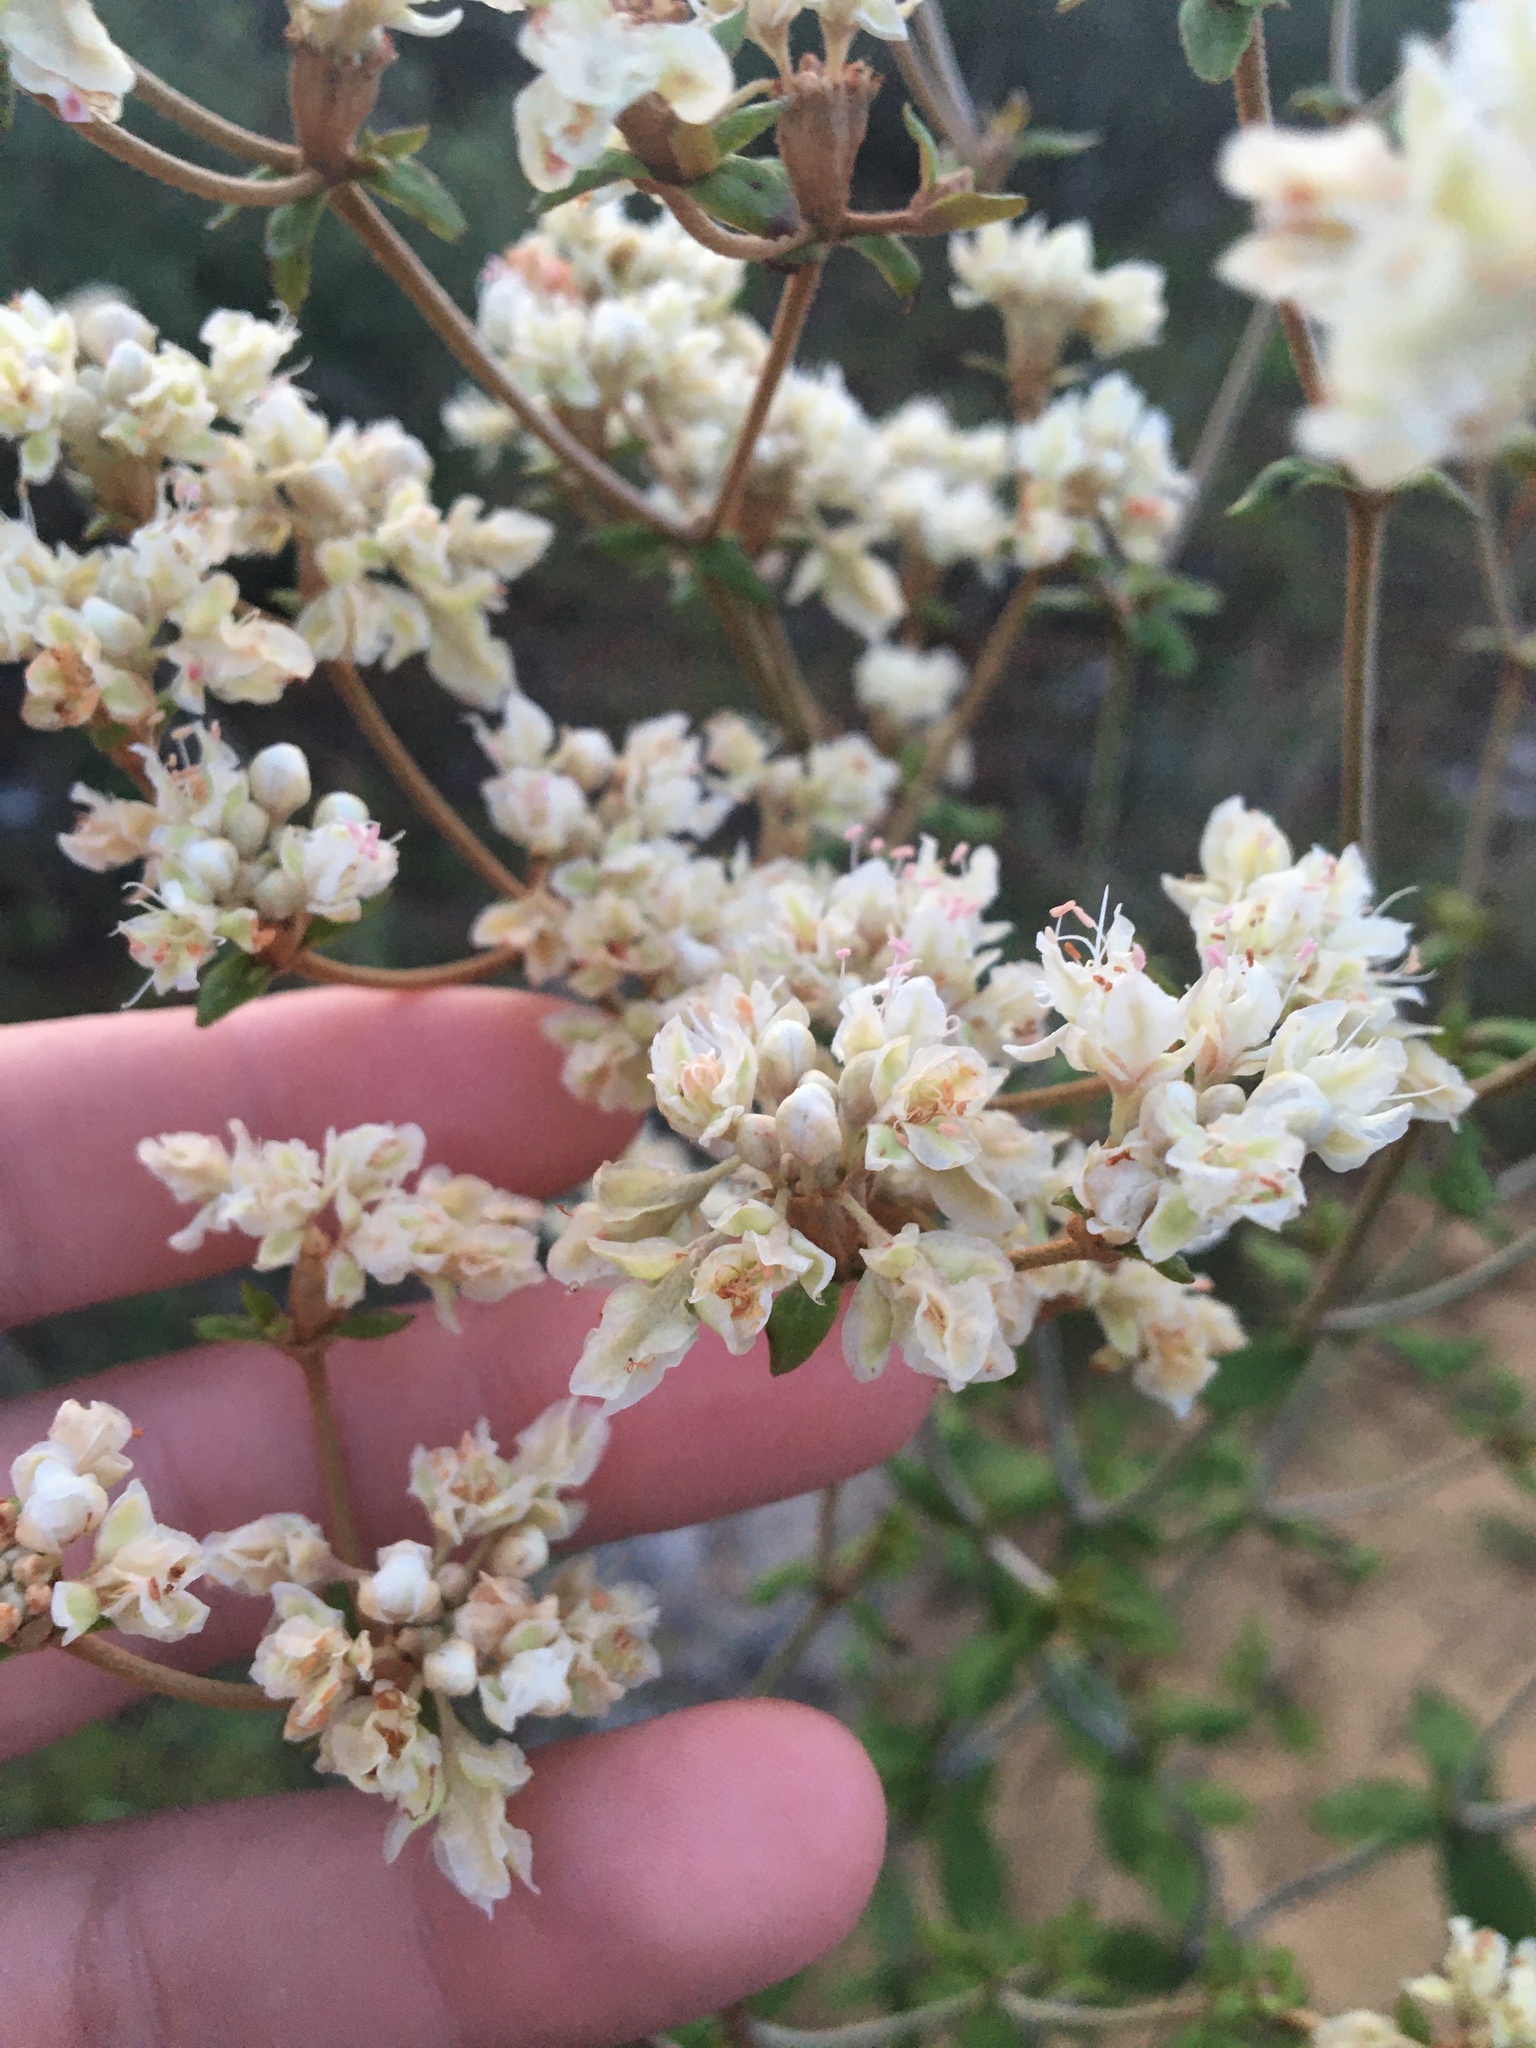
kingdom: Plantae
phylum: Tracheophyta
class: Magnoliopsida
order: Caryophyllales
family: Polygonaceae
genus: Eriogonum
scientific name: Eriogonum tomentosum
